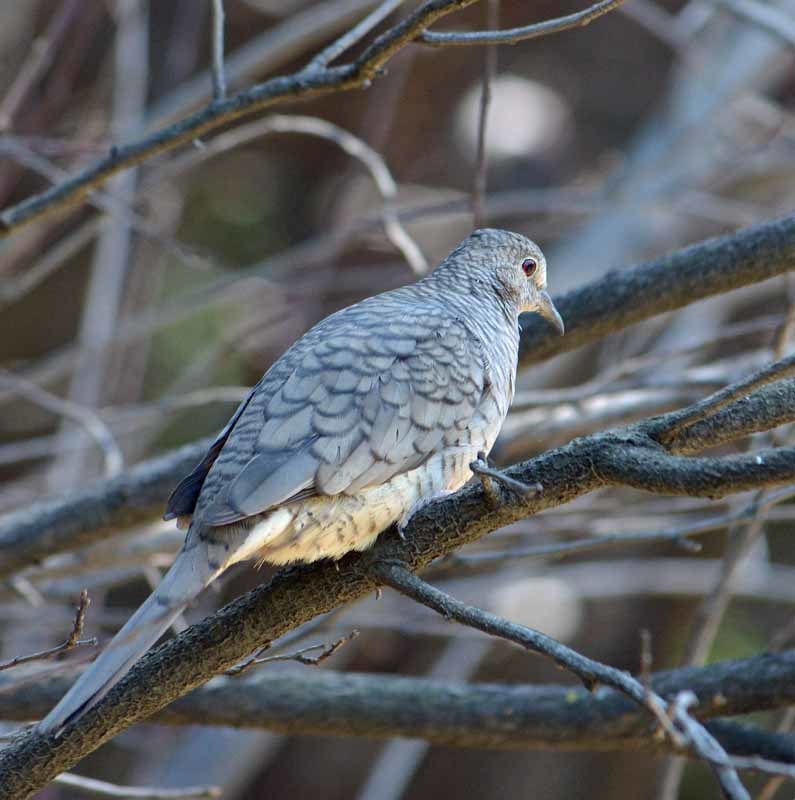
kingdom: Animalia
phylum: Chordata
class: Aves
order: Columbiformes
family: Columbidae
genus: Columbina
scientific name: Columbina inca
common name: Inca dove
